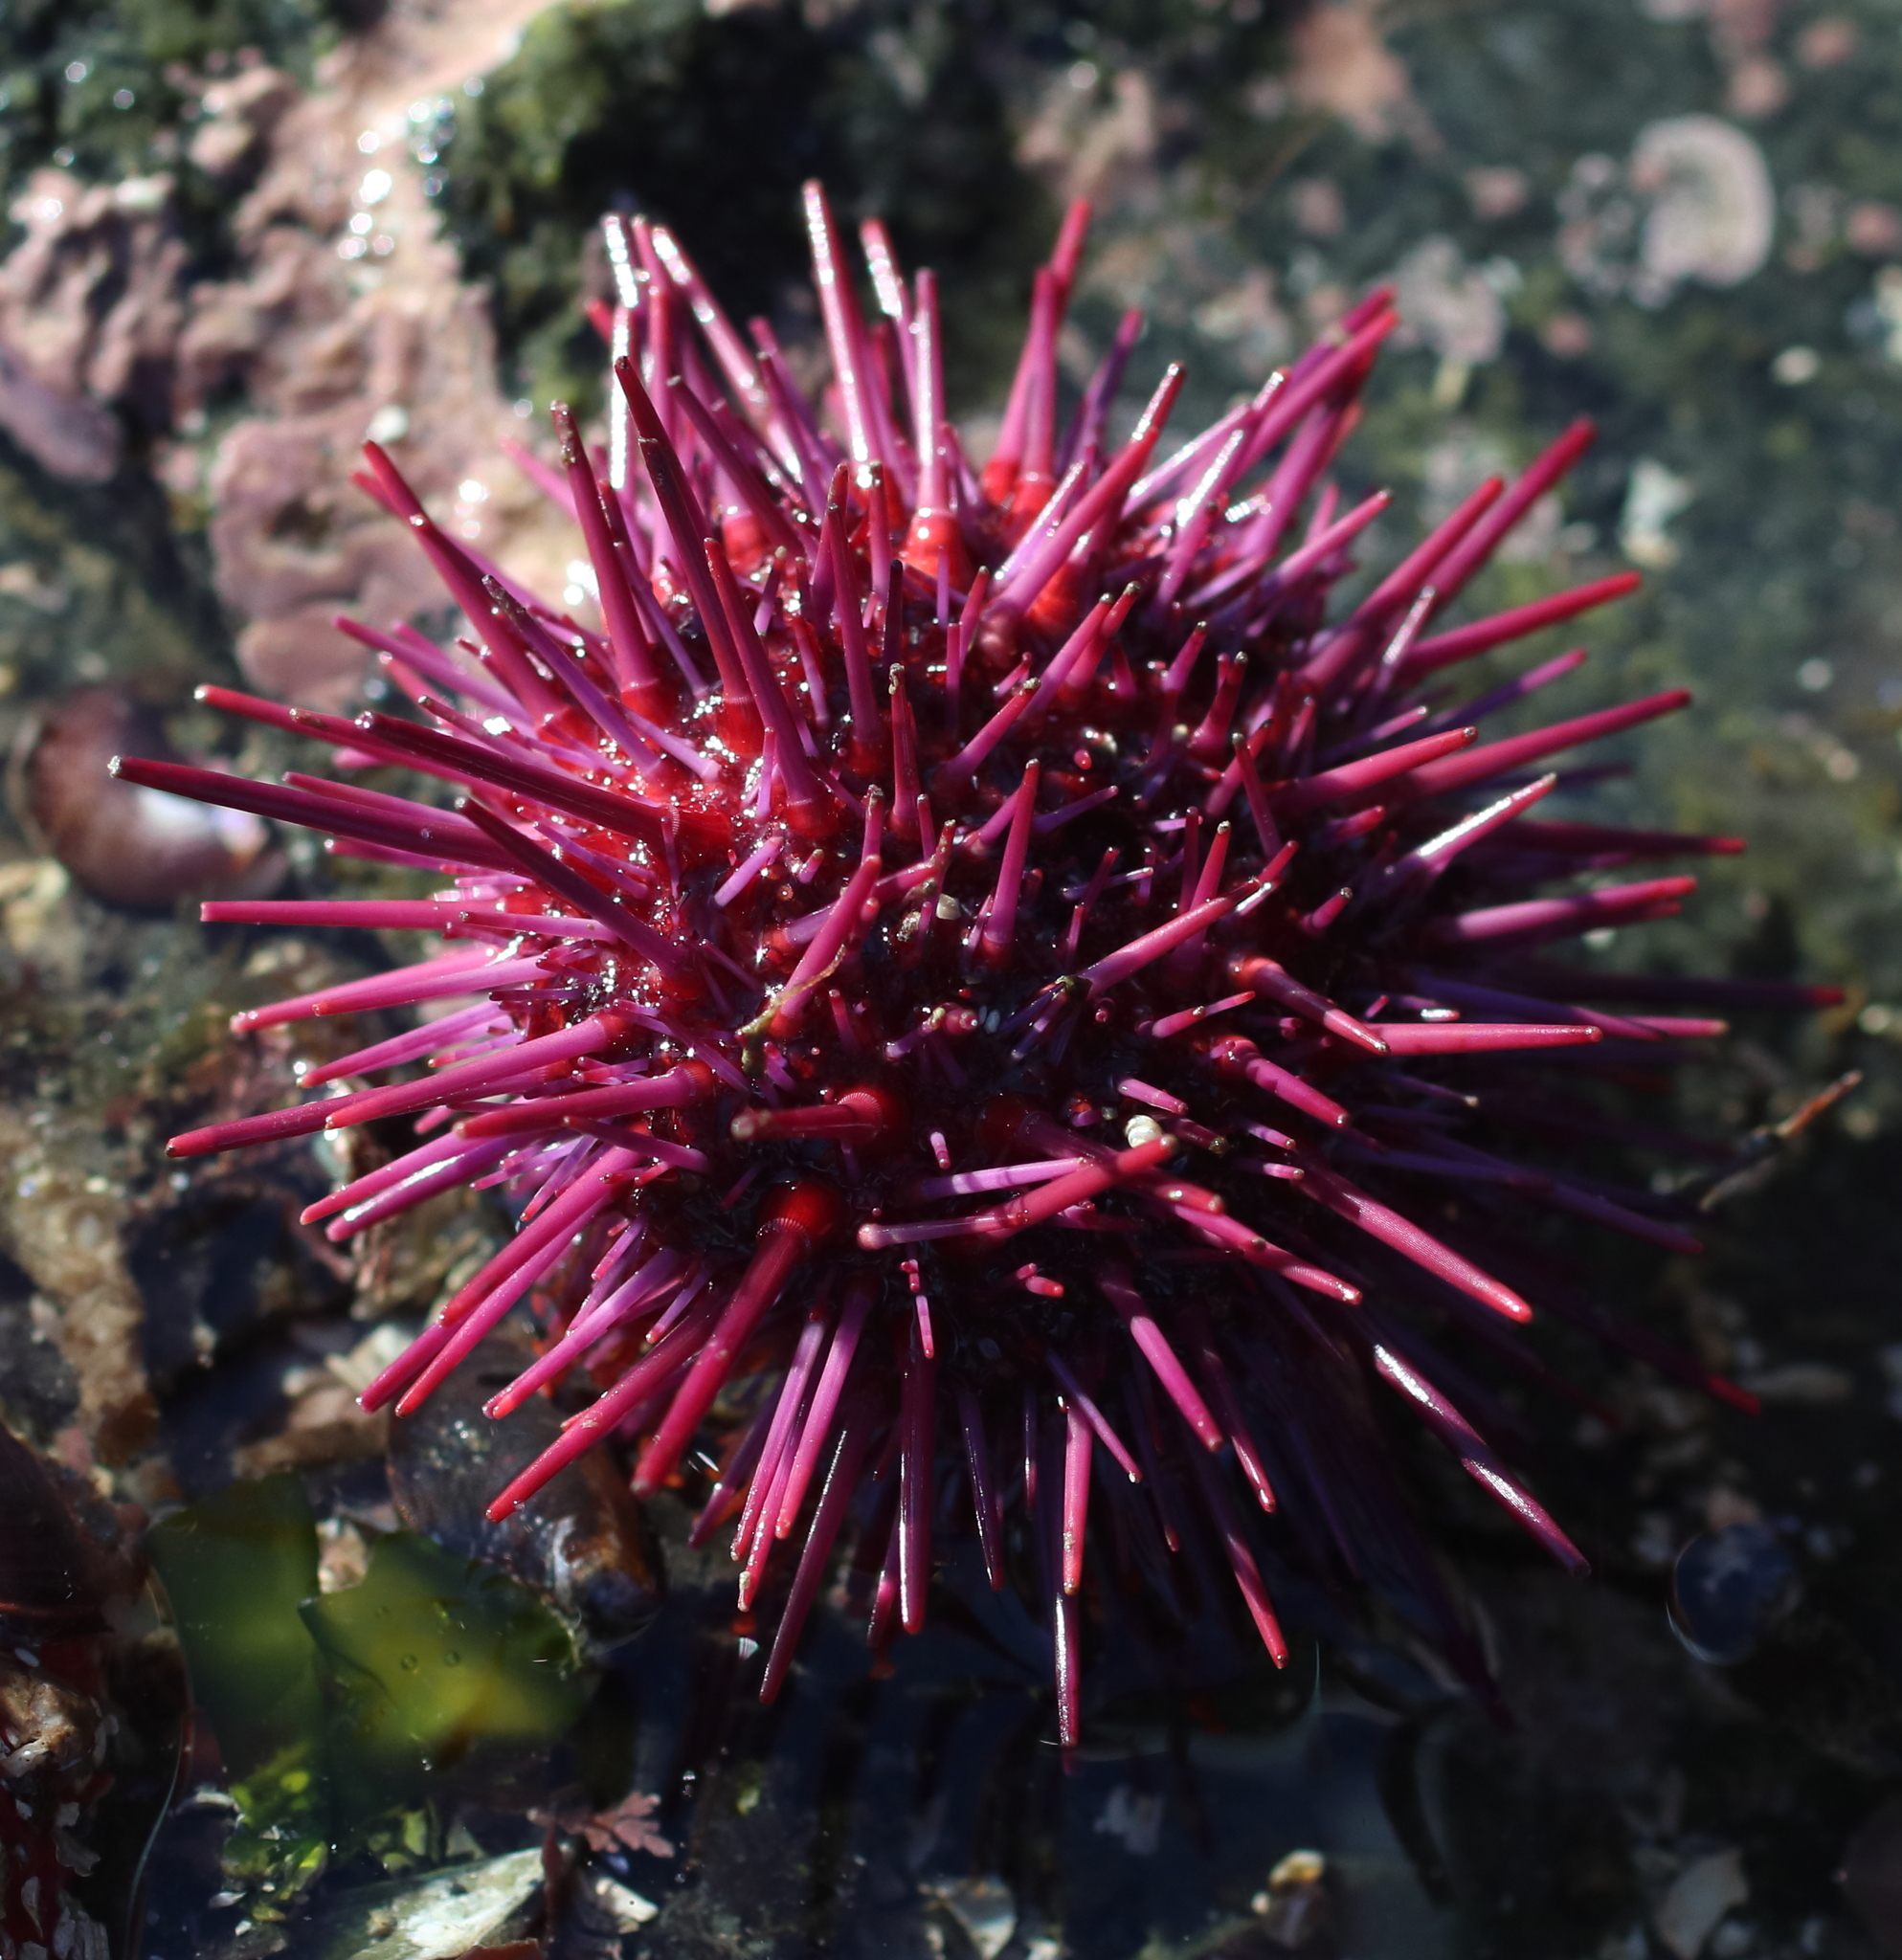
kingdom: Animalia
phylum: Echinodermata
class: Echinoidea
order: Camarodonta
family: Strongylocentrotidae
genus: Mesocentrotus
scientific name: Mesocentrotus franciscanus
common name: Red sea urchin
